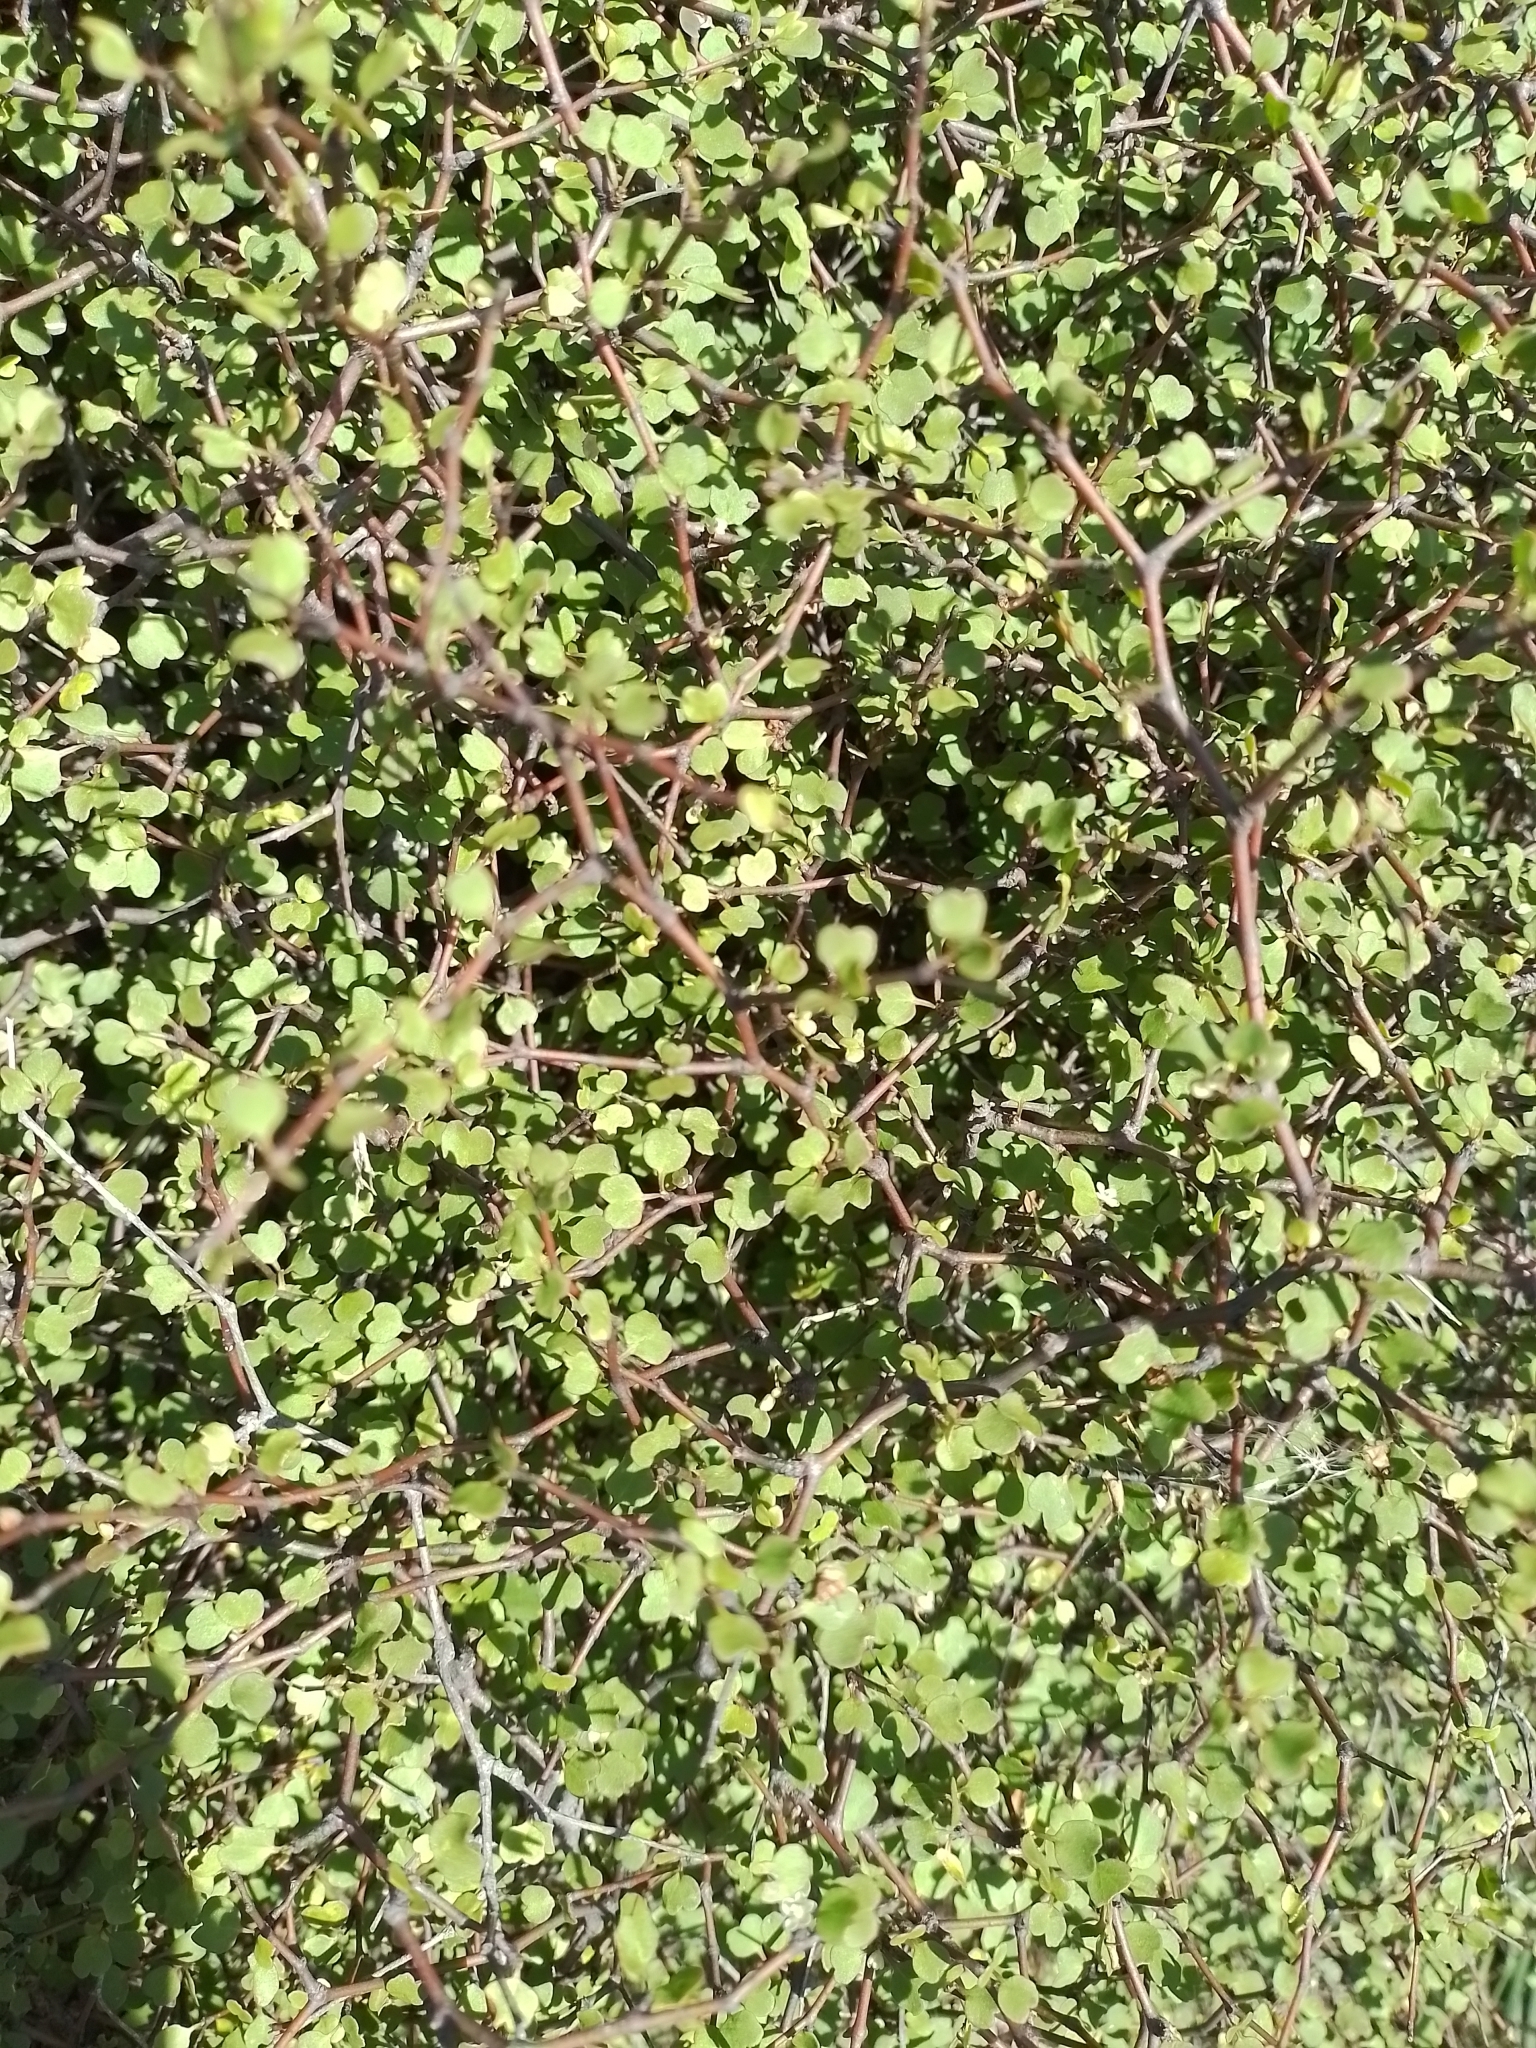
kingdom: Plantae
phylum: Tracheophyta
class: Magnoliopsida
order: Caryophyllales
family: Polygonaceae
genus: Muehlenbeckia
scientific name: Muehlenbeckia astonii
